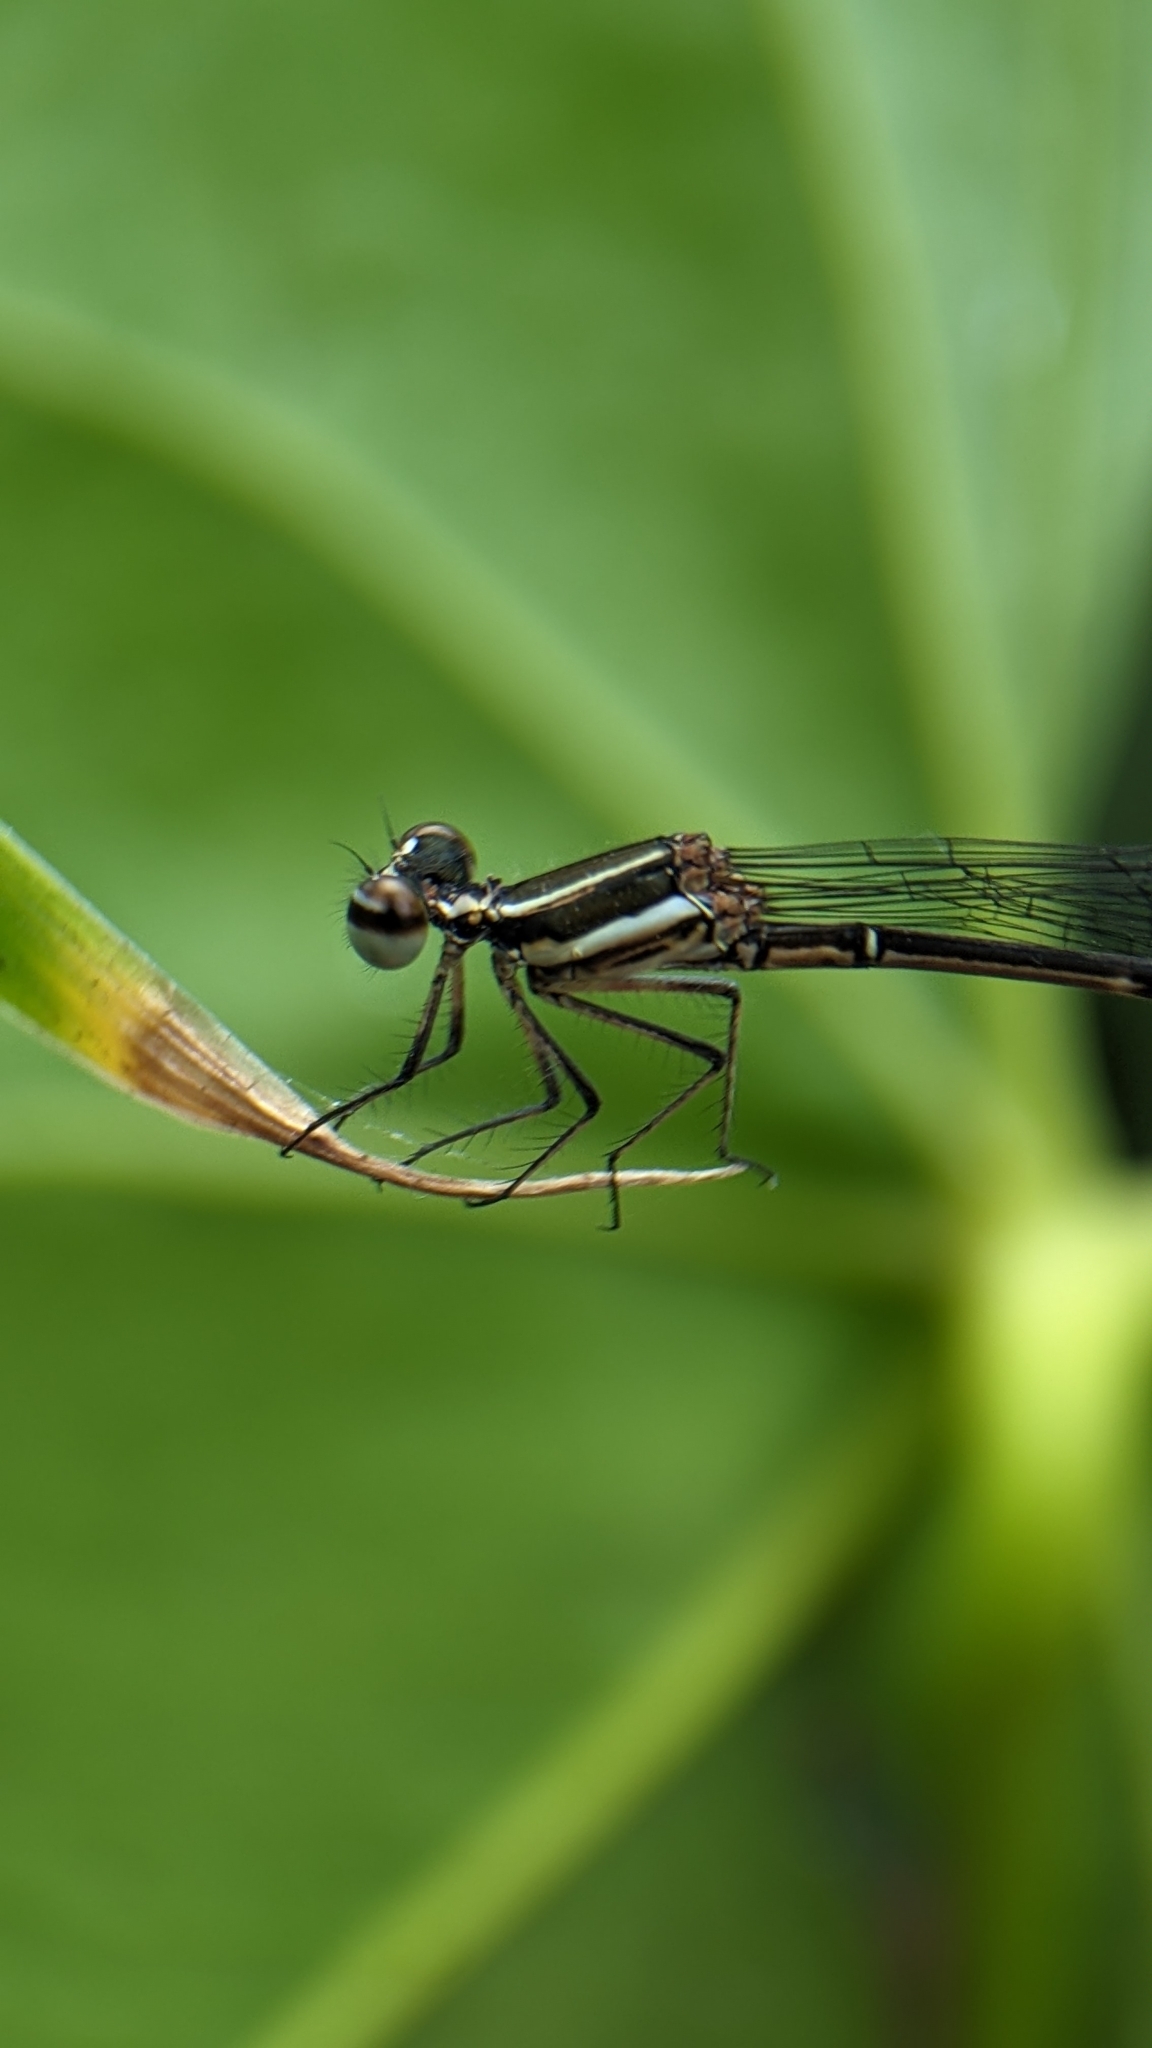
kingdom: Animalia
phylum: Arthropoda
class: Insecta
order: Odonata
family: Platycnemididae
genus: Prodasineura
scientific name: Prodasineura verticalis
